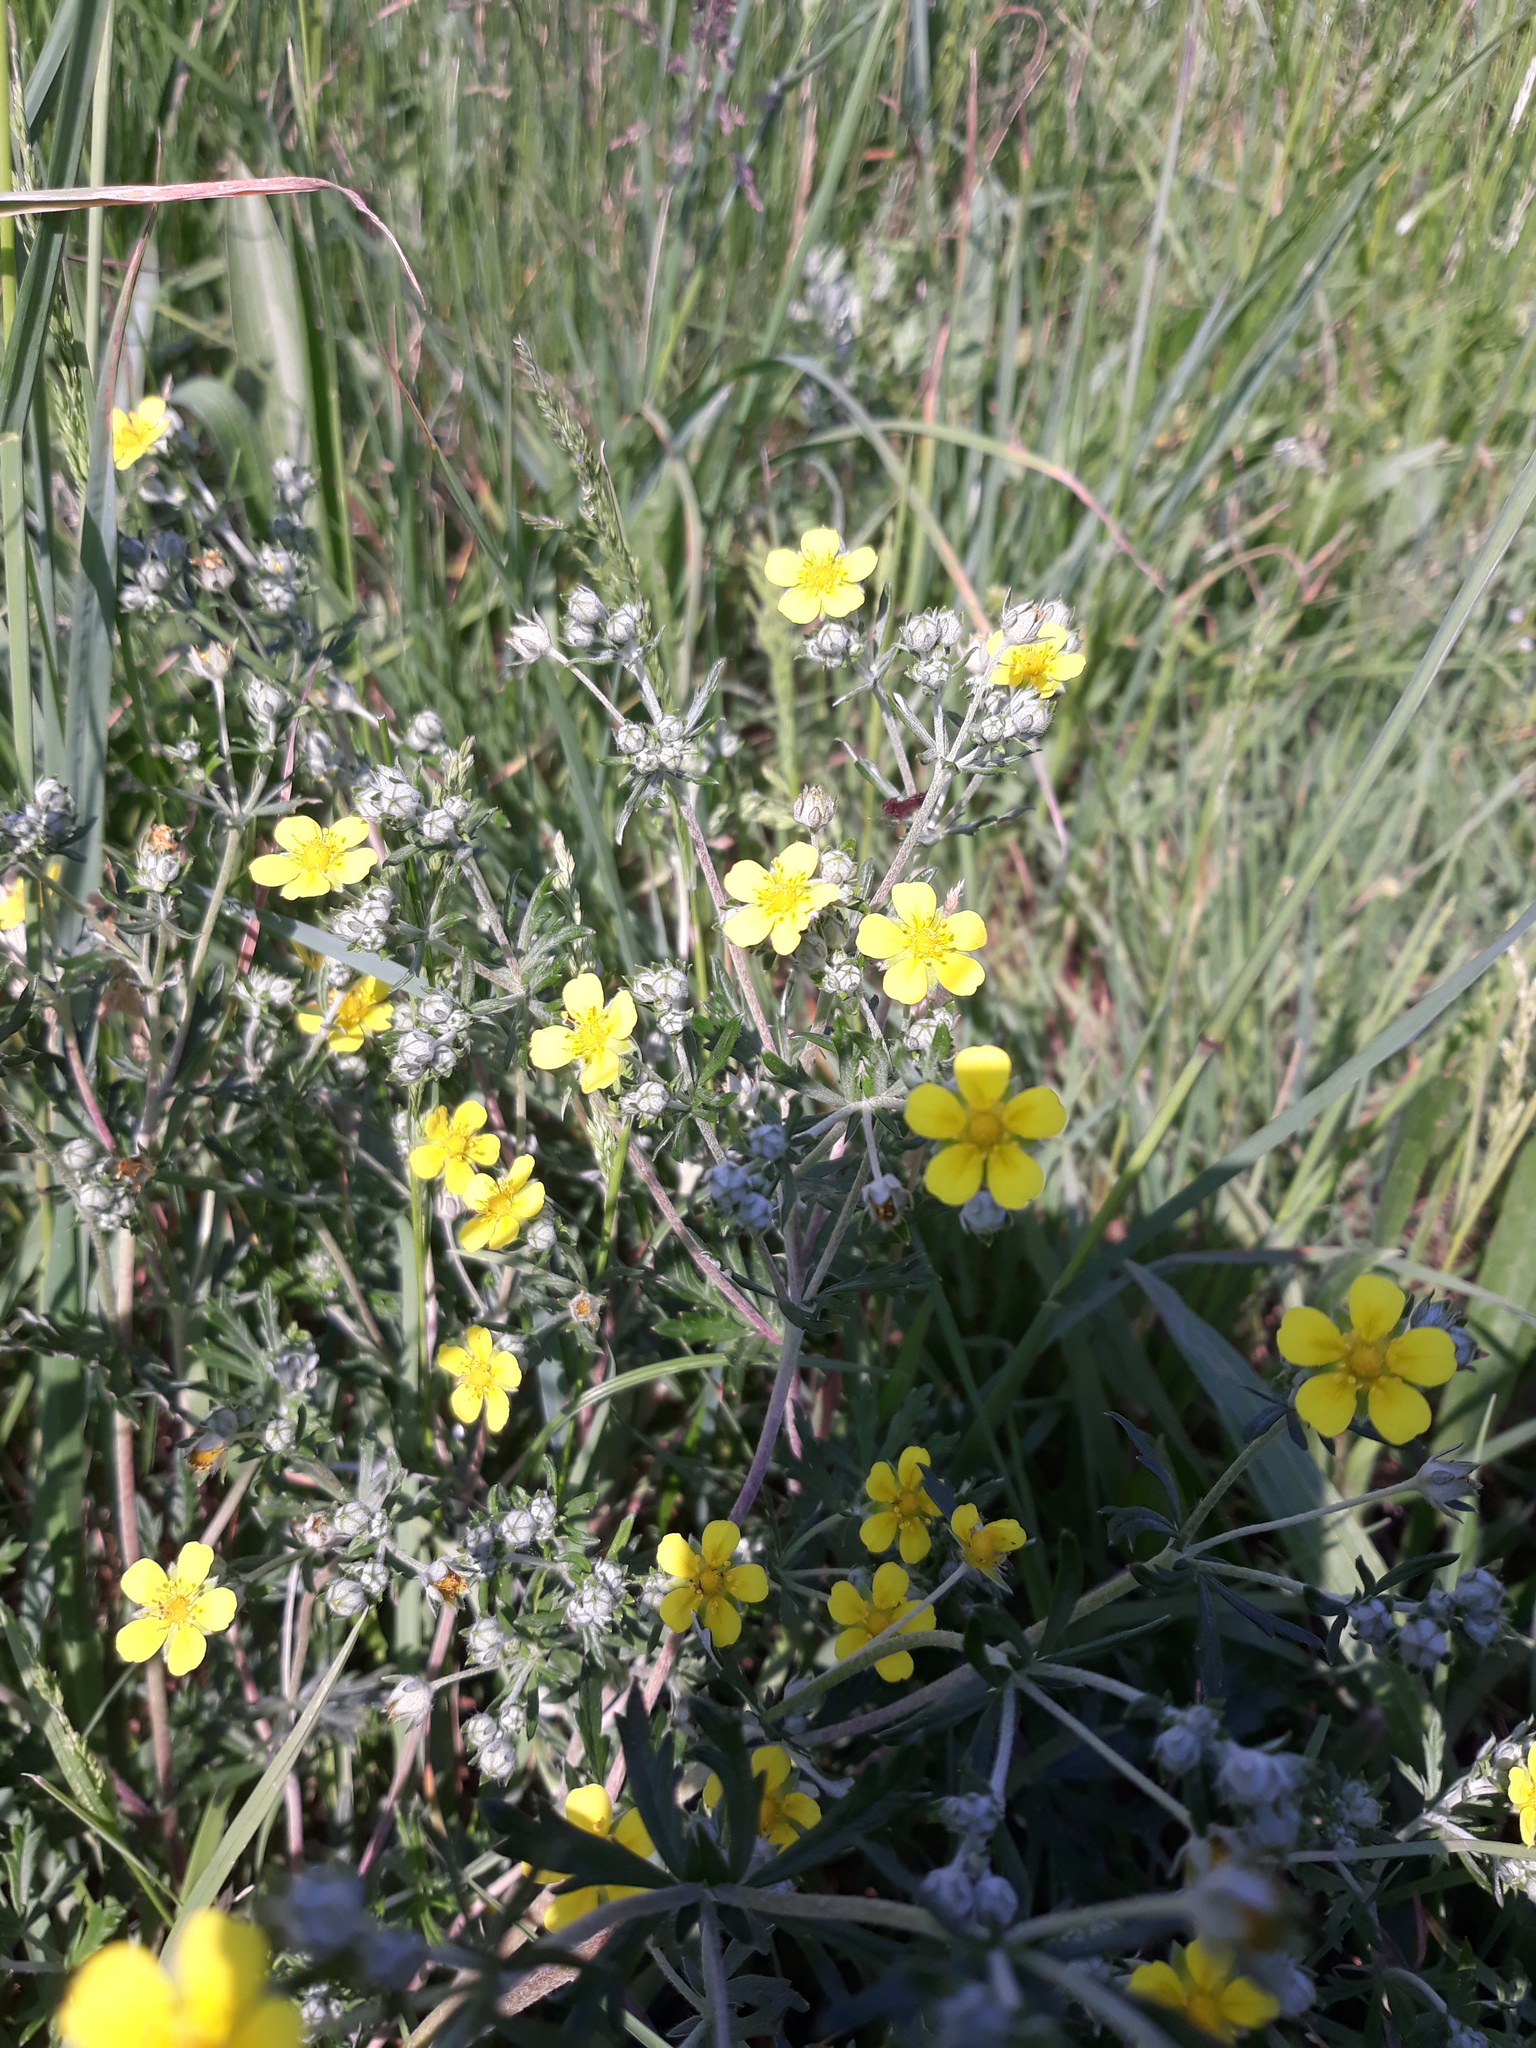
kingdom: Plantae
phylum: Tracheophyta
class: Magnoliopsida
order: Rosales
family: Rosaceae
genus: Potentilla
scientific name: Potentilla argentea
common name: Hoary cinquefoil
